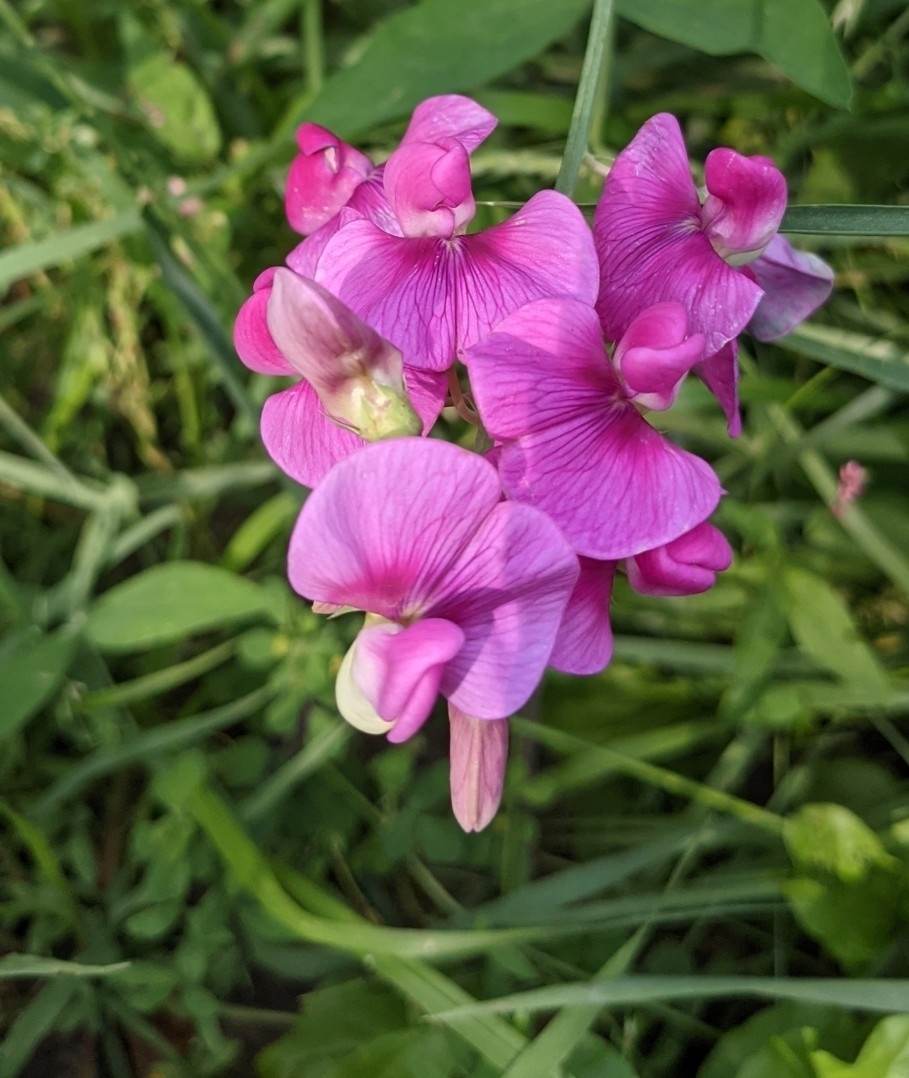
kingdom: Plantae
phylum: Tracheophyta
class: Magnoliopsida
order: Fabales
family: Fabaceae
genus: Lathyrus
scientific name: Lathyrus latifolius
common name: Perennial pea
